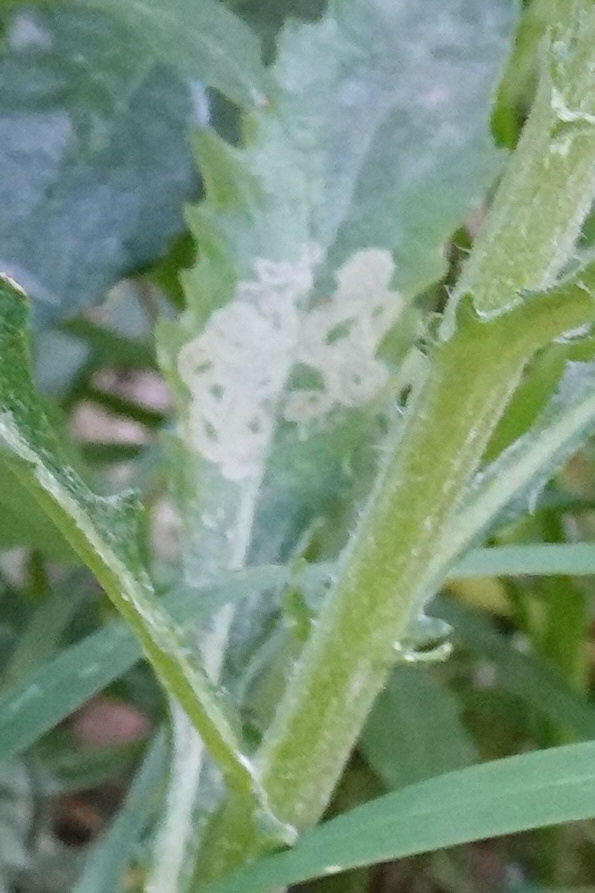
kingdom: Animalia
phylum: Arthropoda
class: Insecta
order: Lepidoptera
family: Nepticulidae
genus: Stigmella
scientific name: Stigmella ogygia
